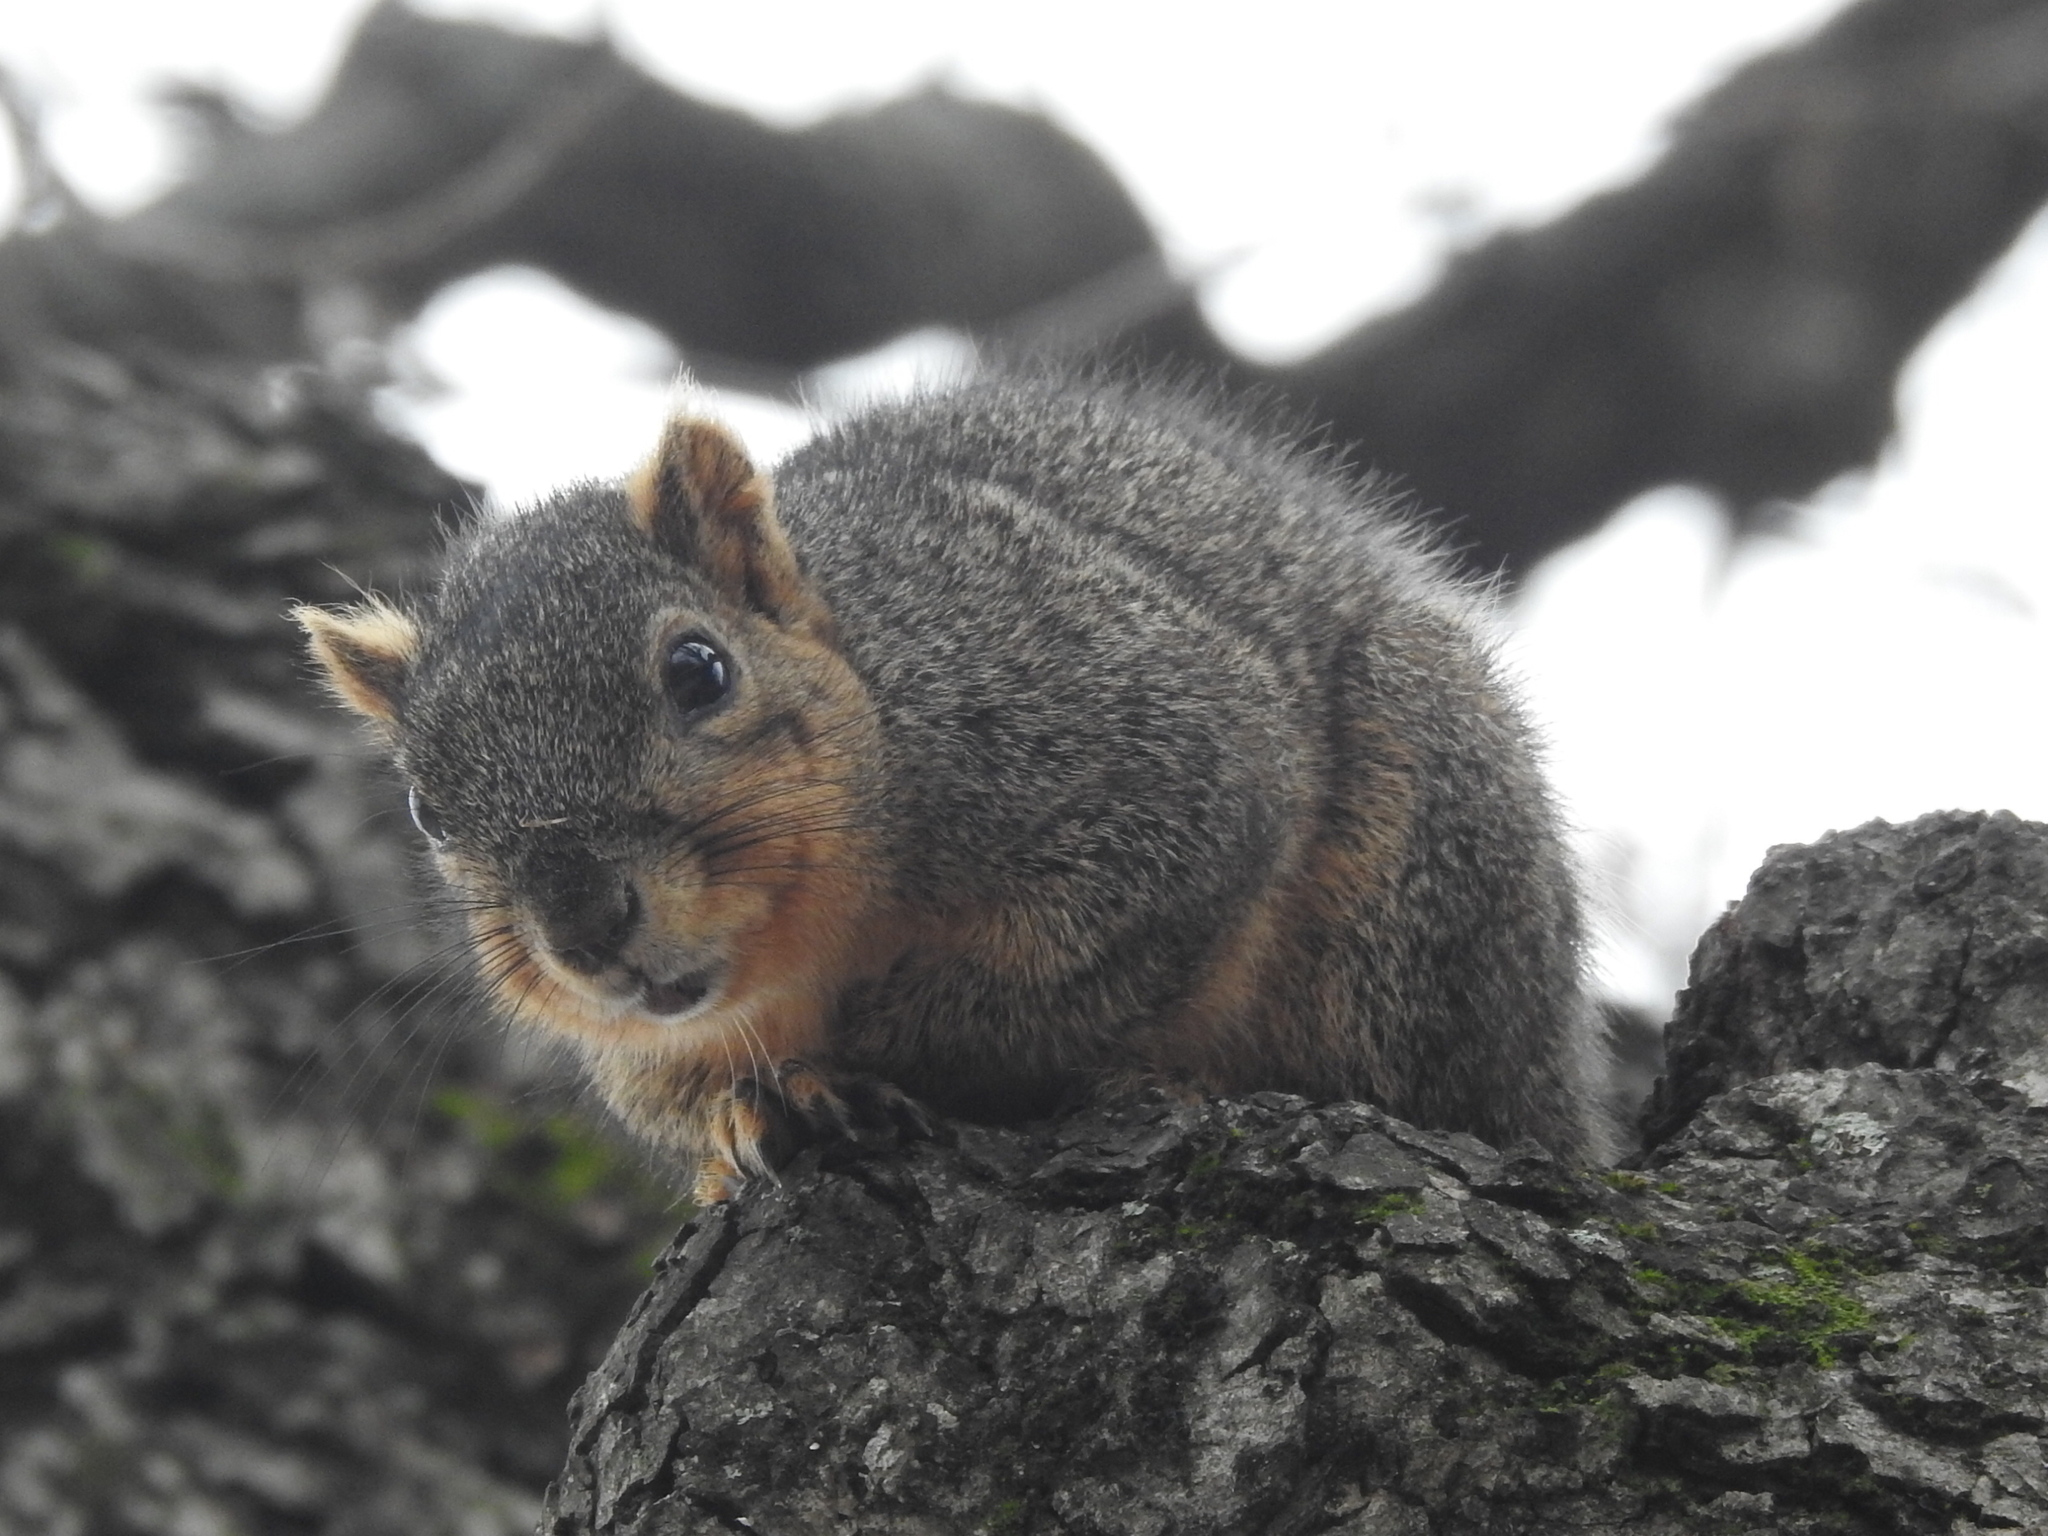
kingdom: Animalia
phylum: Chordata
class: Mammalia
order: Rodentia
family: Sciuridae
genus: Sciurus
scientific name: Sciurus niger
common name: Fox squirrel
